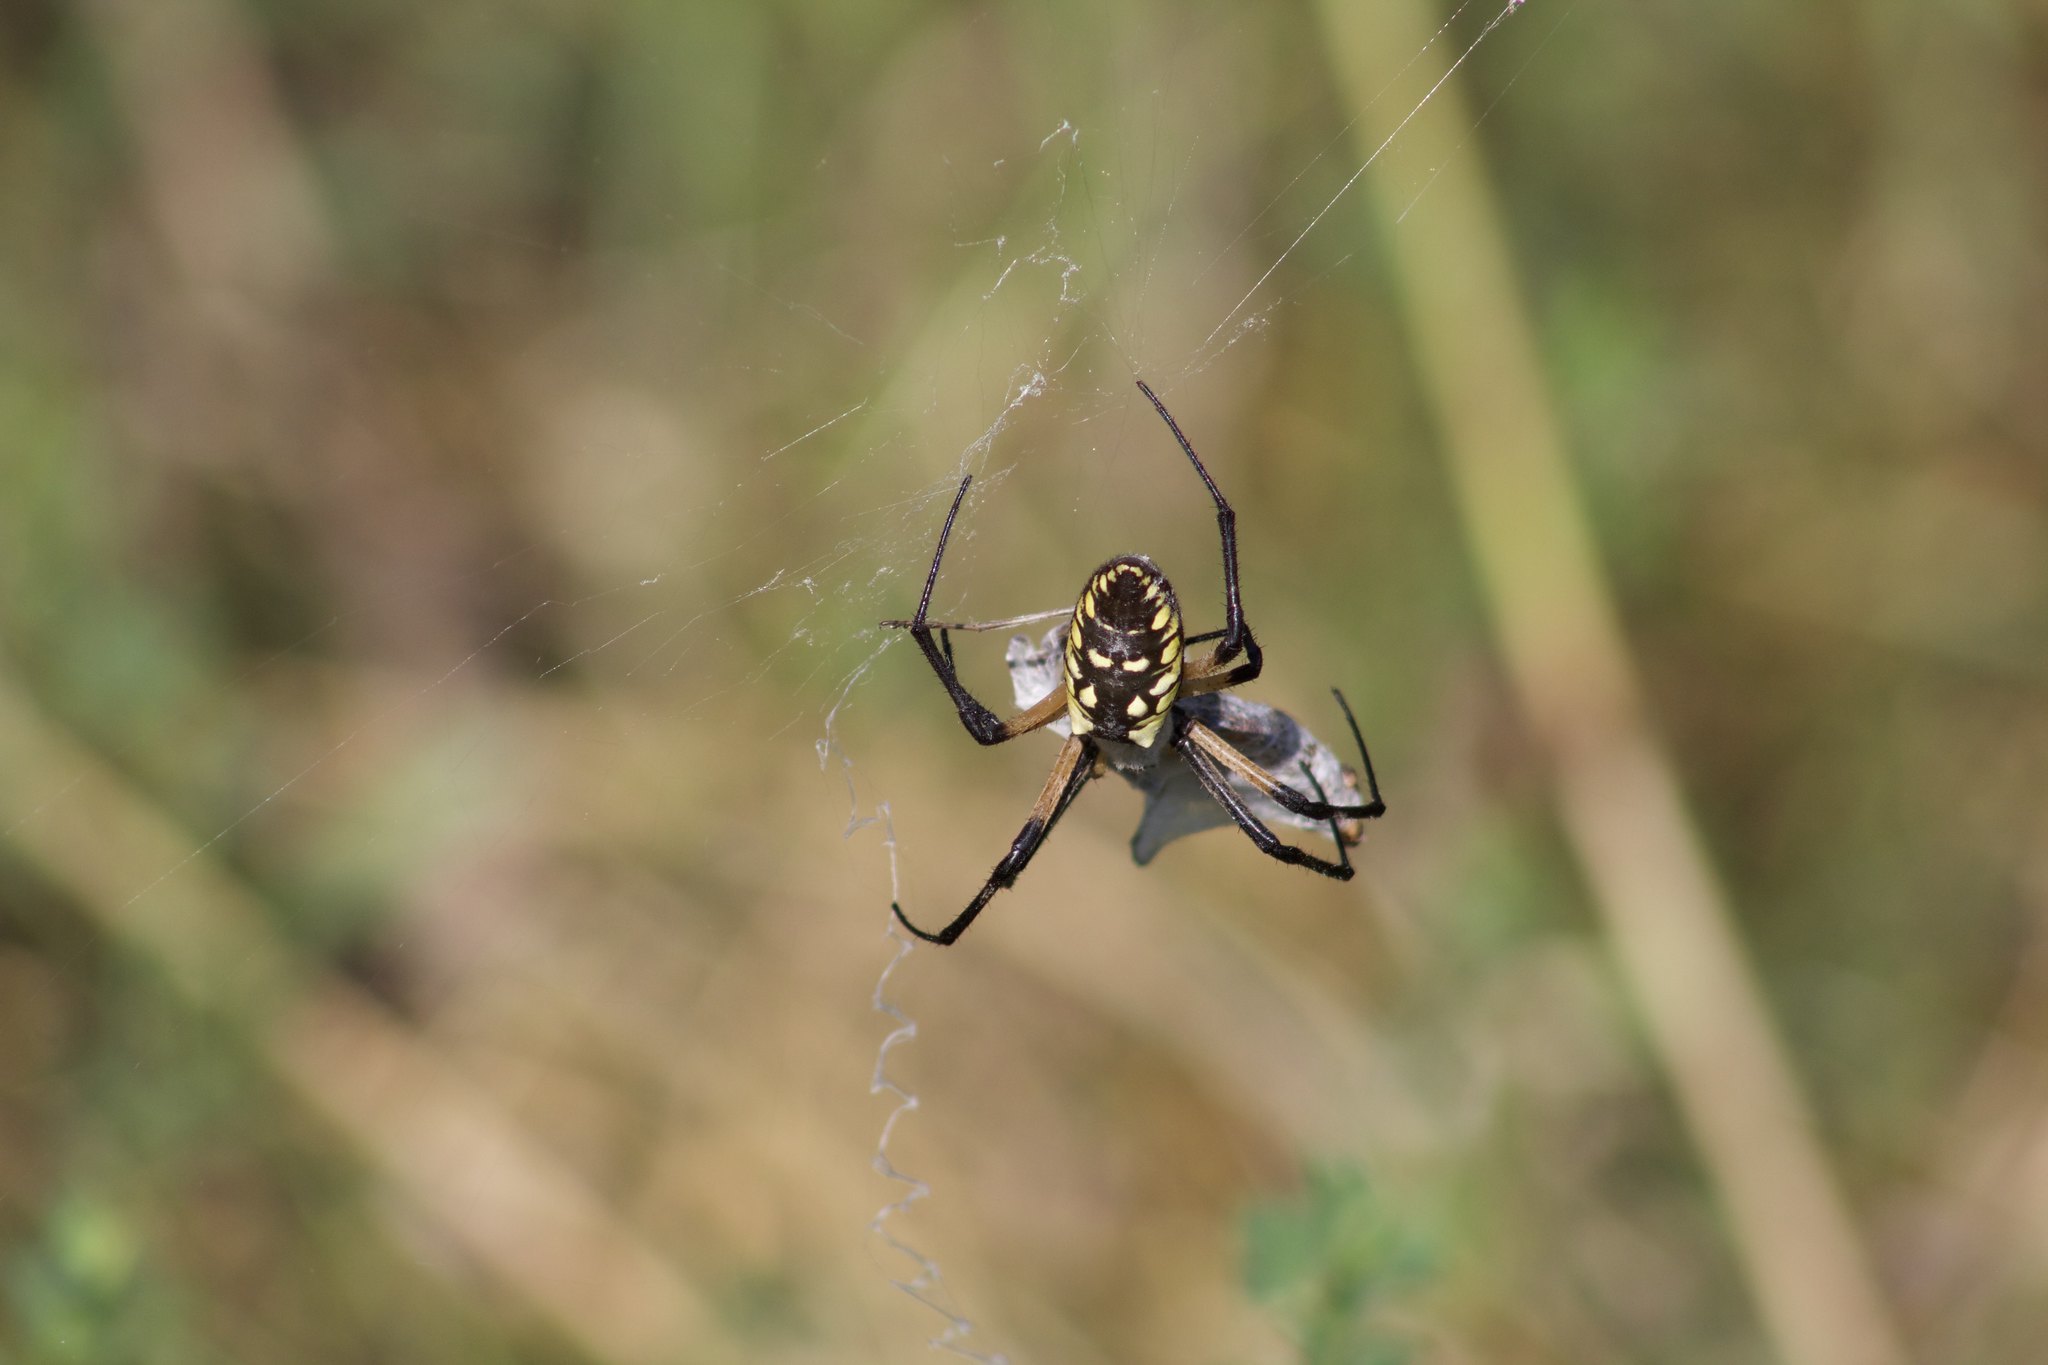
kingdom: Animalia
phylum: Arthropoda
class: Arachnida
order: Araneae
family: Araneidae
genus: Argiope
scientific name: Argiope aurantia
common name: Orb weavers
